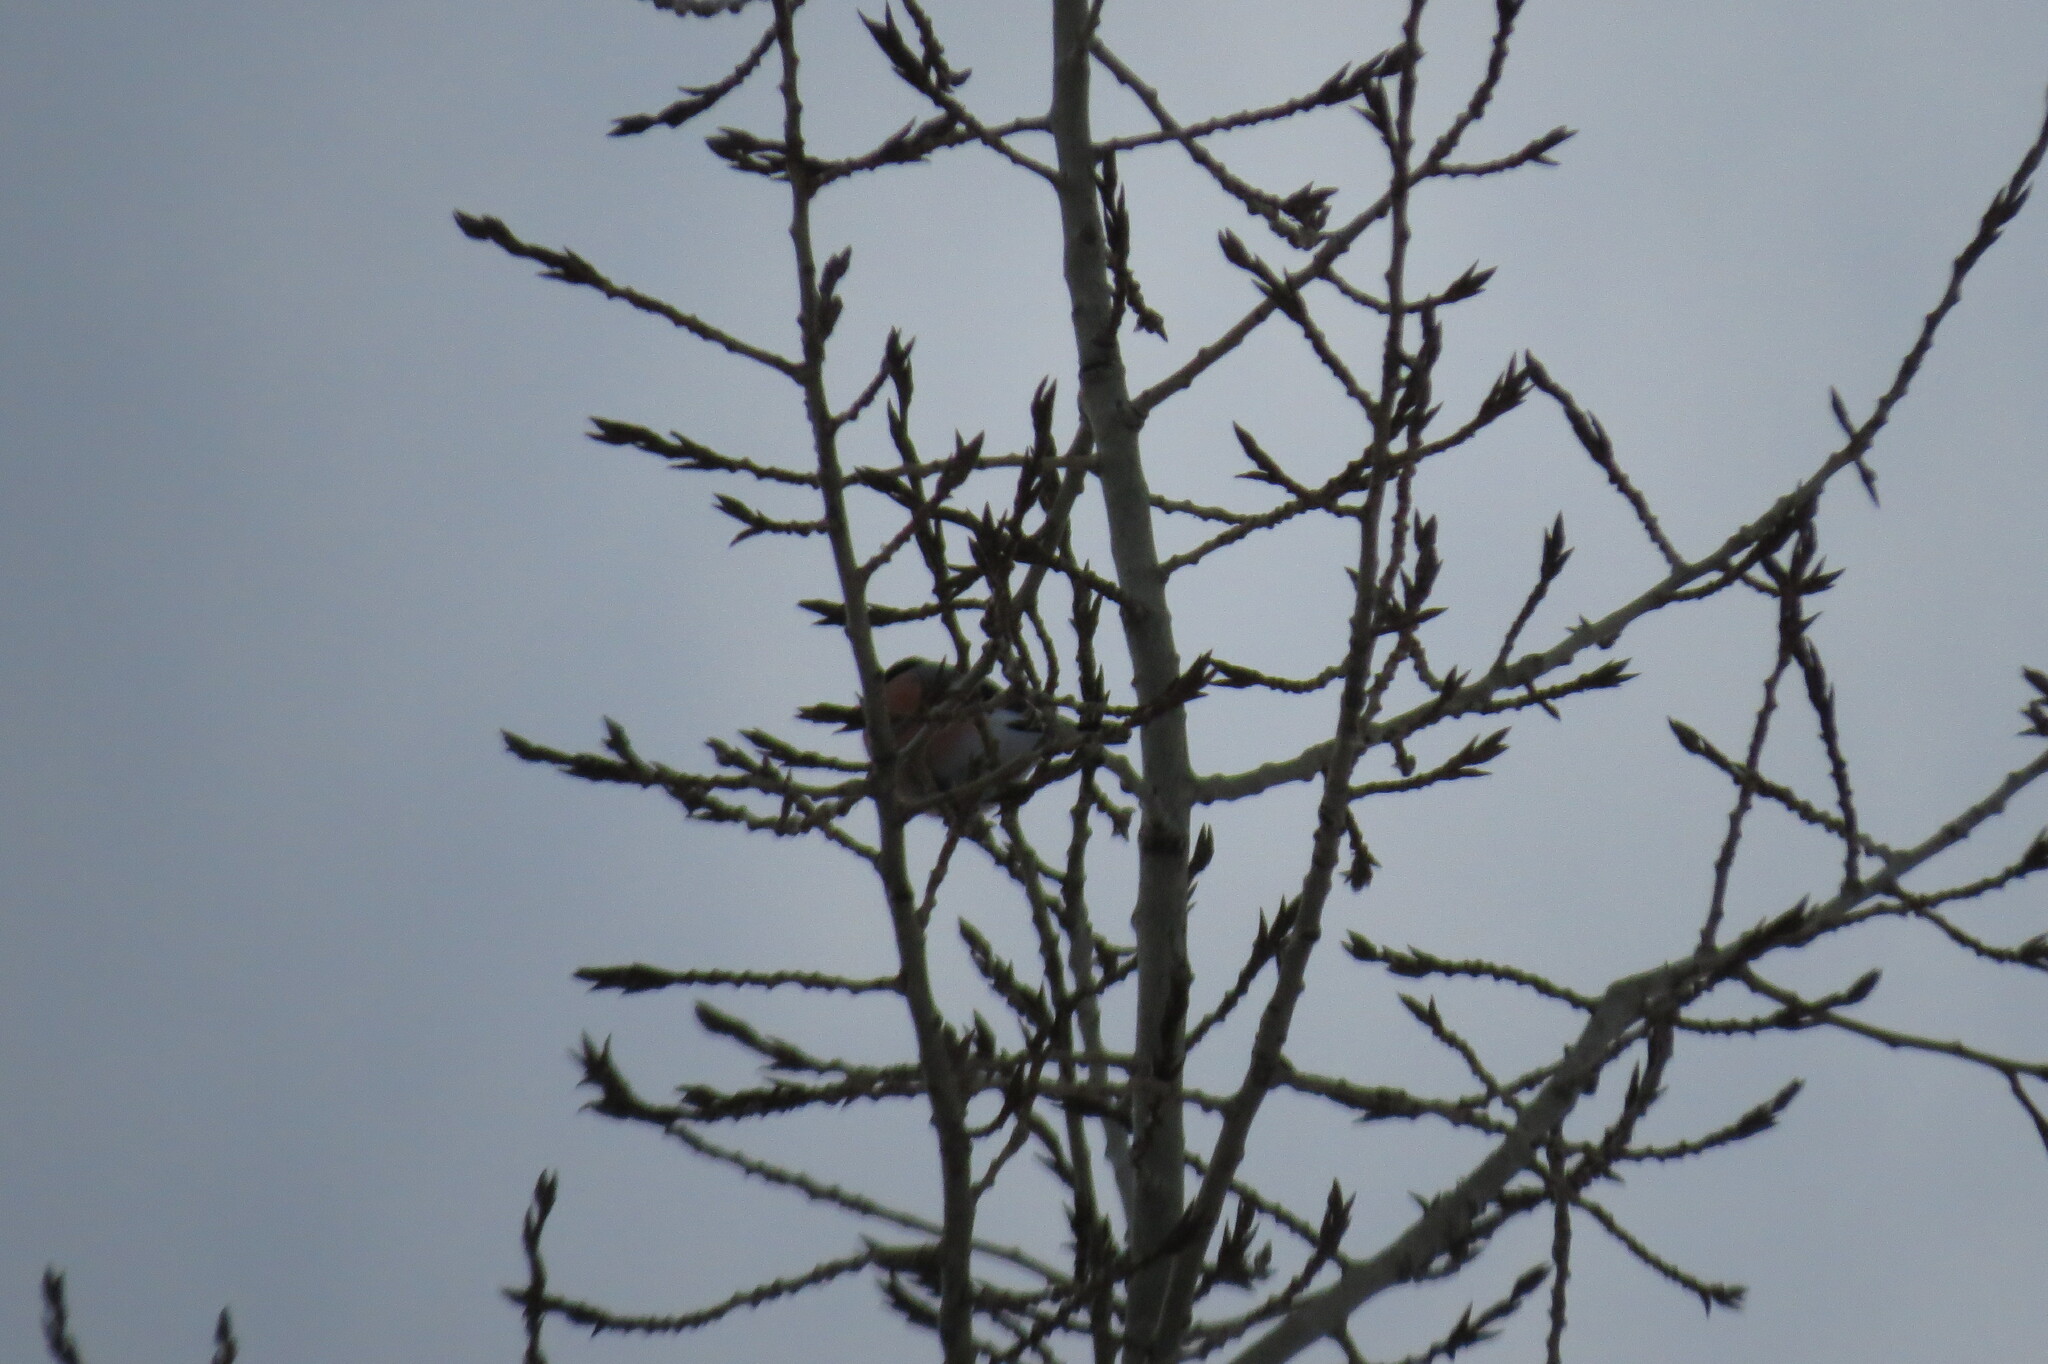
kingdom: Animalia
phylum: Chordata
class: Aves
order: Passeriformes
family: Fringillidae
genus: Pyrrhula
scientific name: Pyrrhula pyrrhula
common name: Eurasian bullfinch
